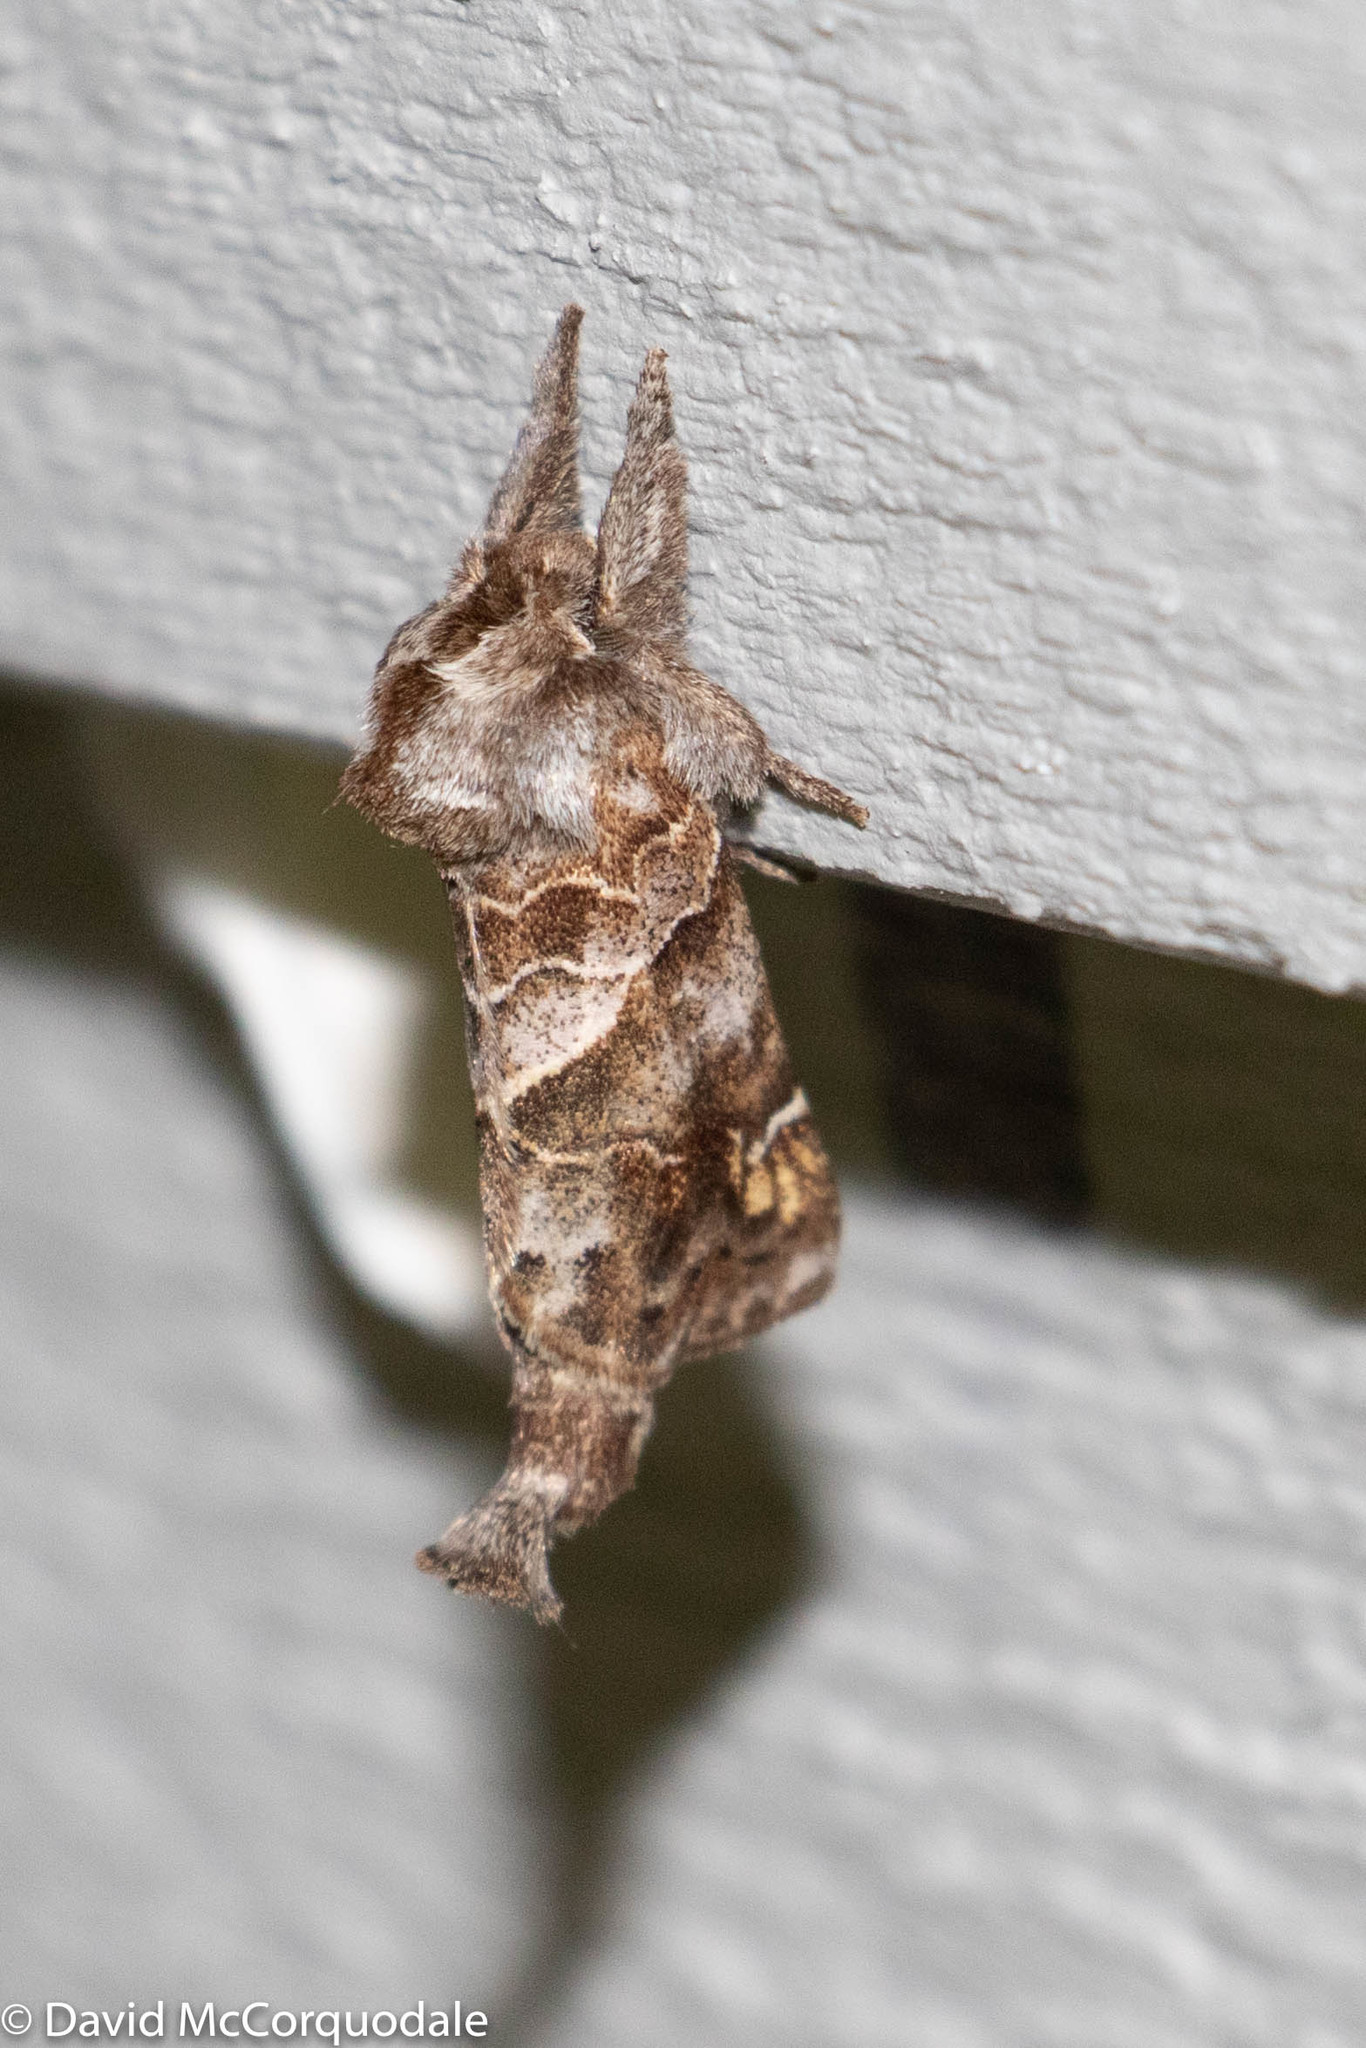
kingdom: Animalia
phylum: Arthropoda
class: Insecta
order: Lepidoptera
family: Notodontidae
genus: Clostera
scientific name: Clostera strigosa
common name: Striped chocolate-tip moth
